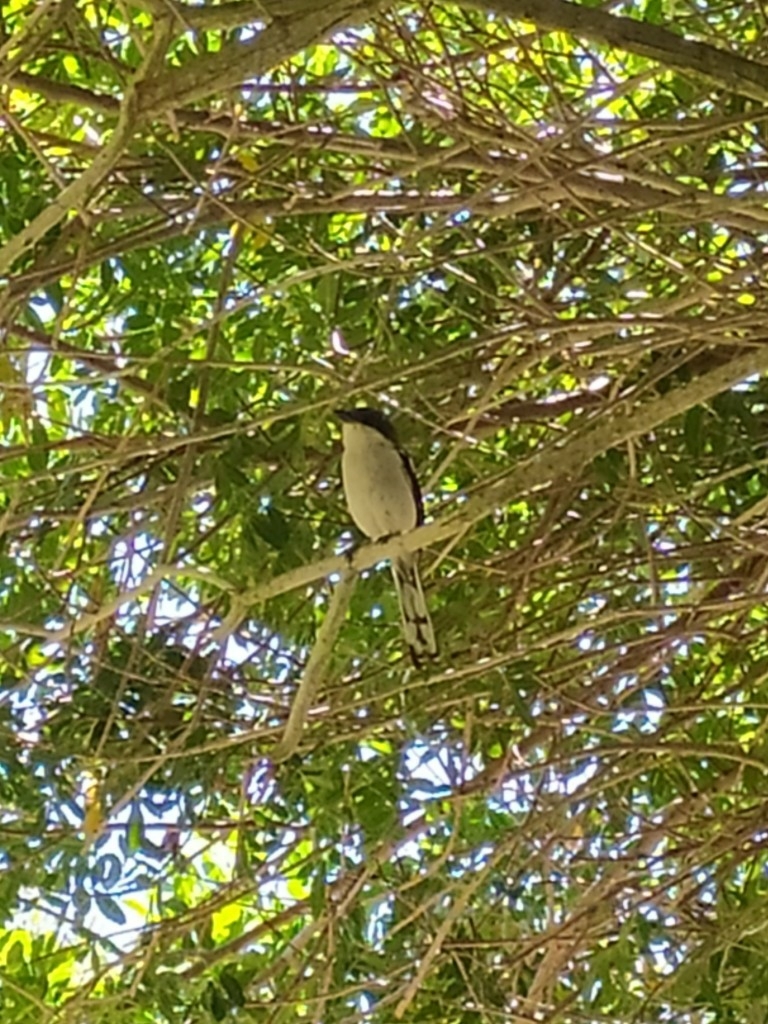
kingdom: Animalia
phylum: Chordata
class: Aves
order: Passeriformes
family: Laniidae
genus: Lanius
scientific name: Lanius collaris
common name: Southern fiscal
